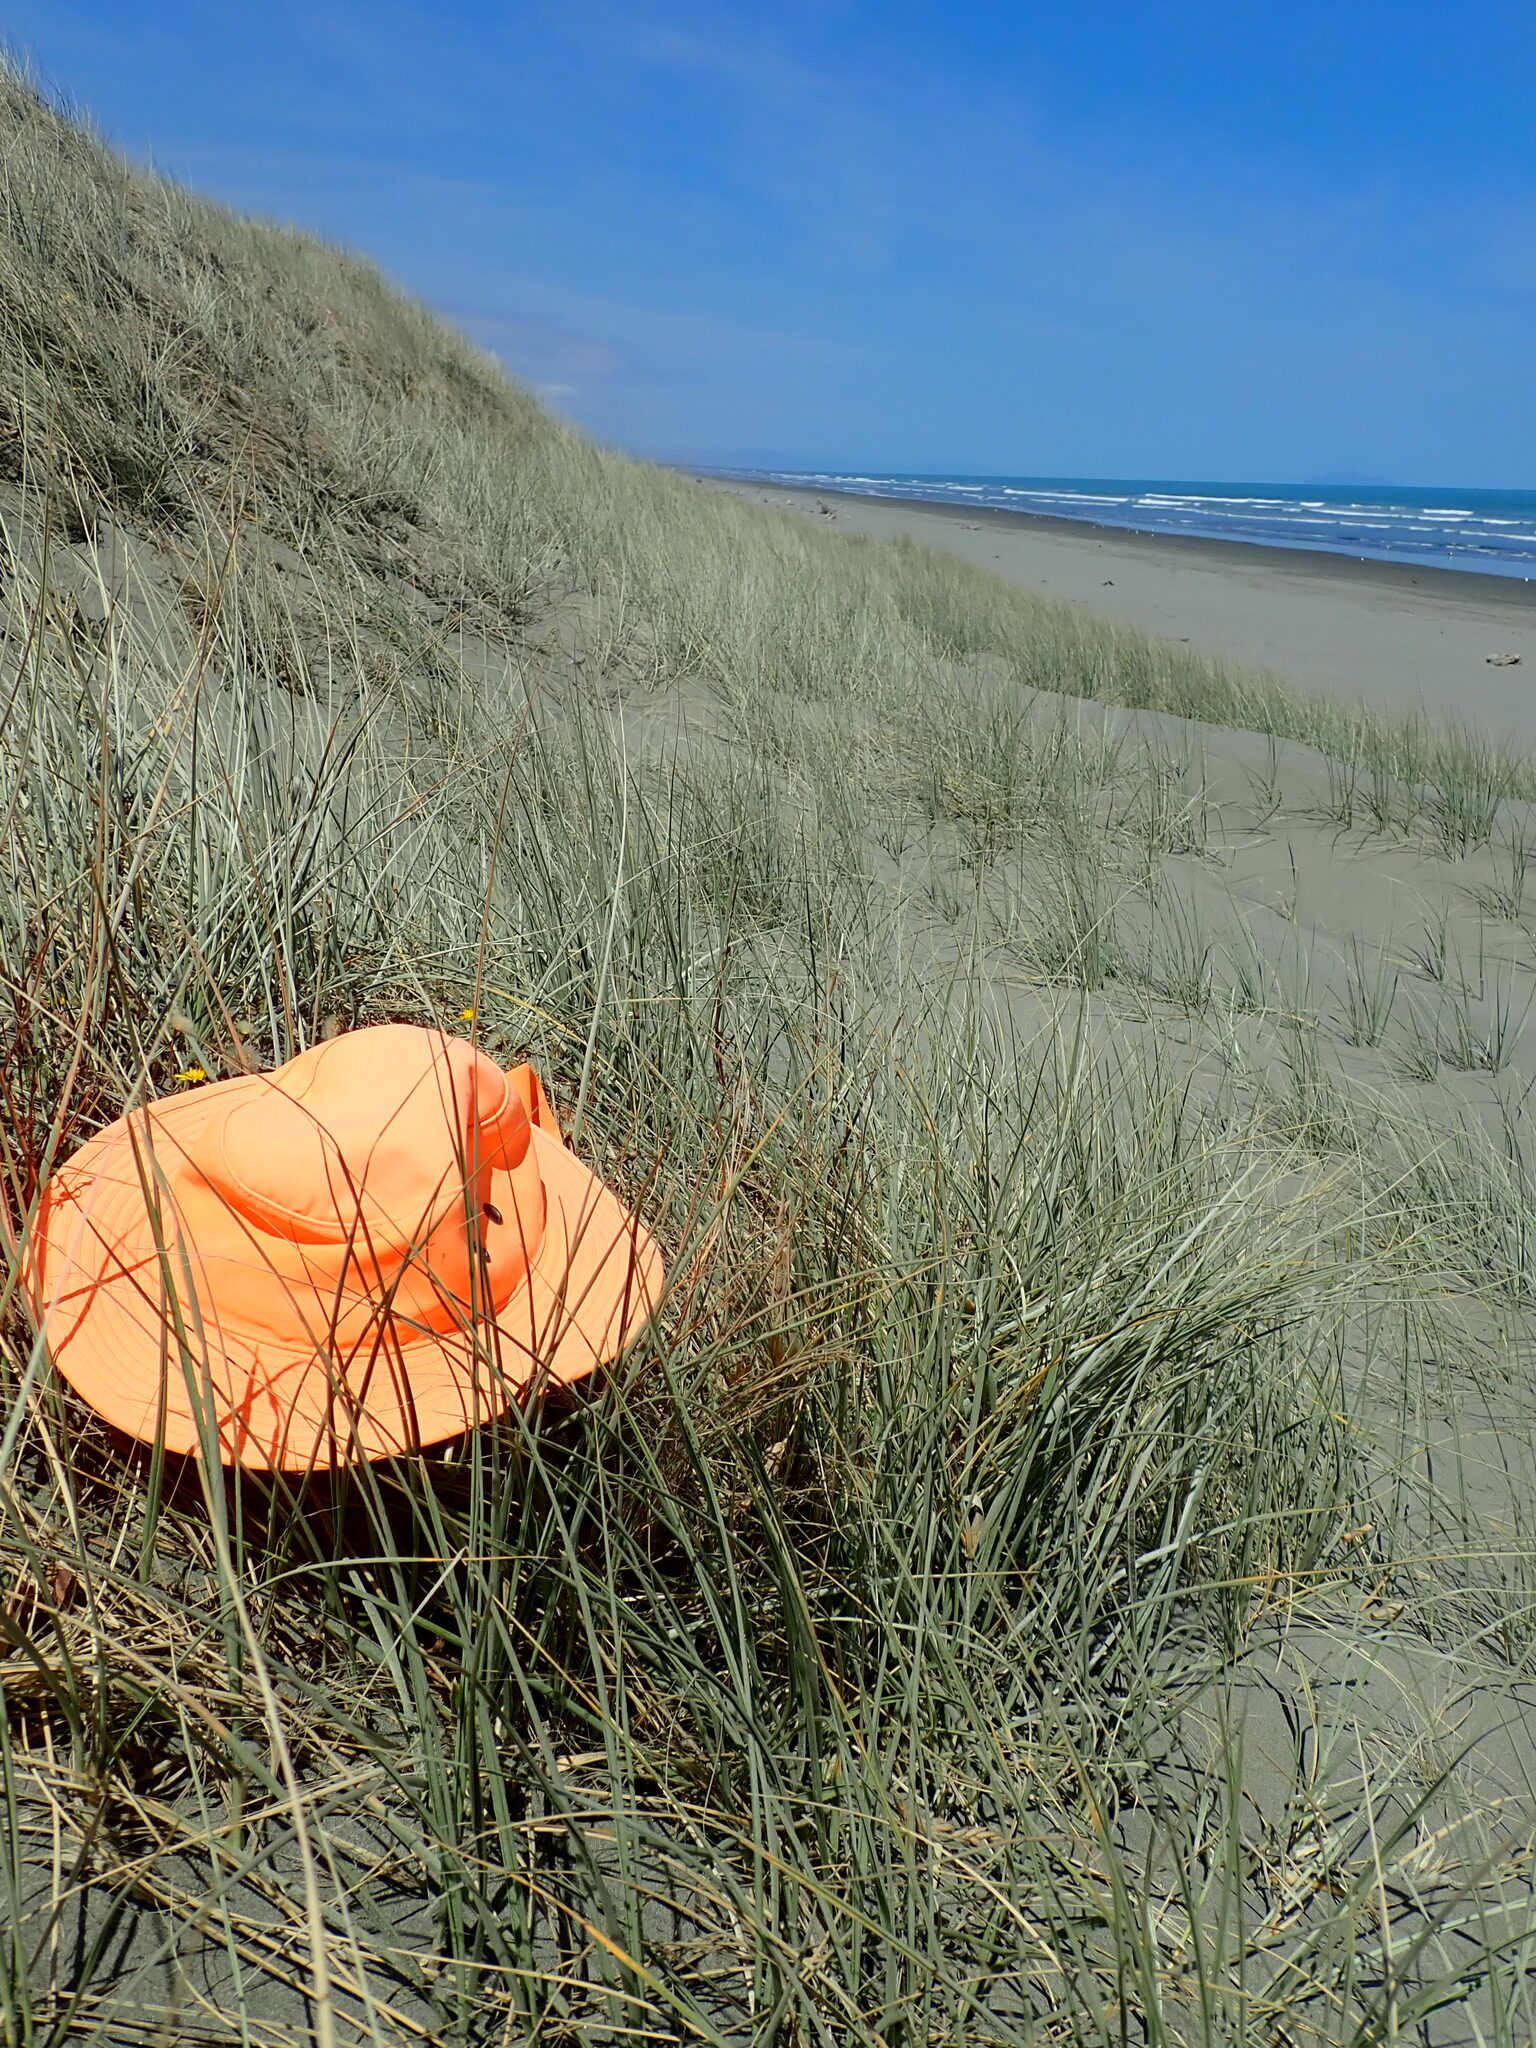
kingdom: Animalia
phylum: Arthropoda
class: Arachnida
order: Araneae
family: Theridiidae
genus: Latrodectus
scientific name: Latrodectus katipo
